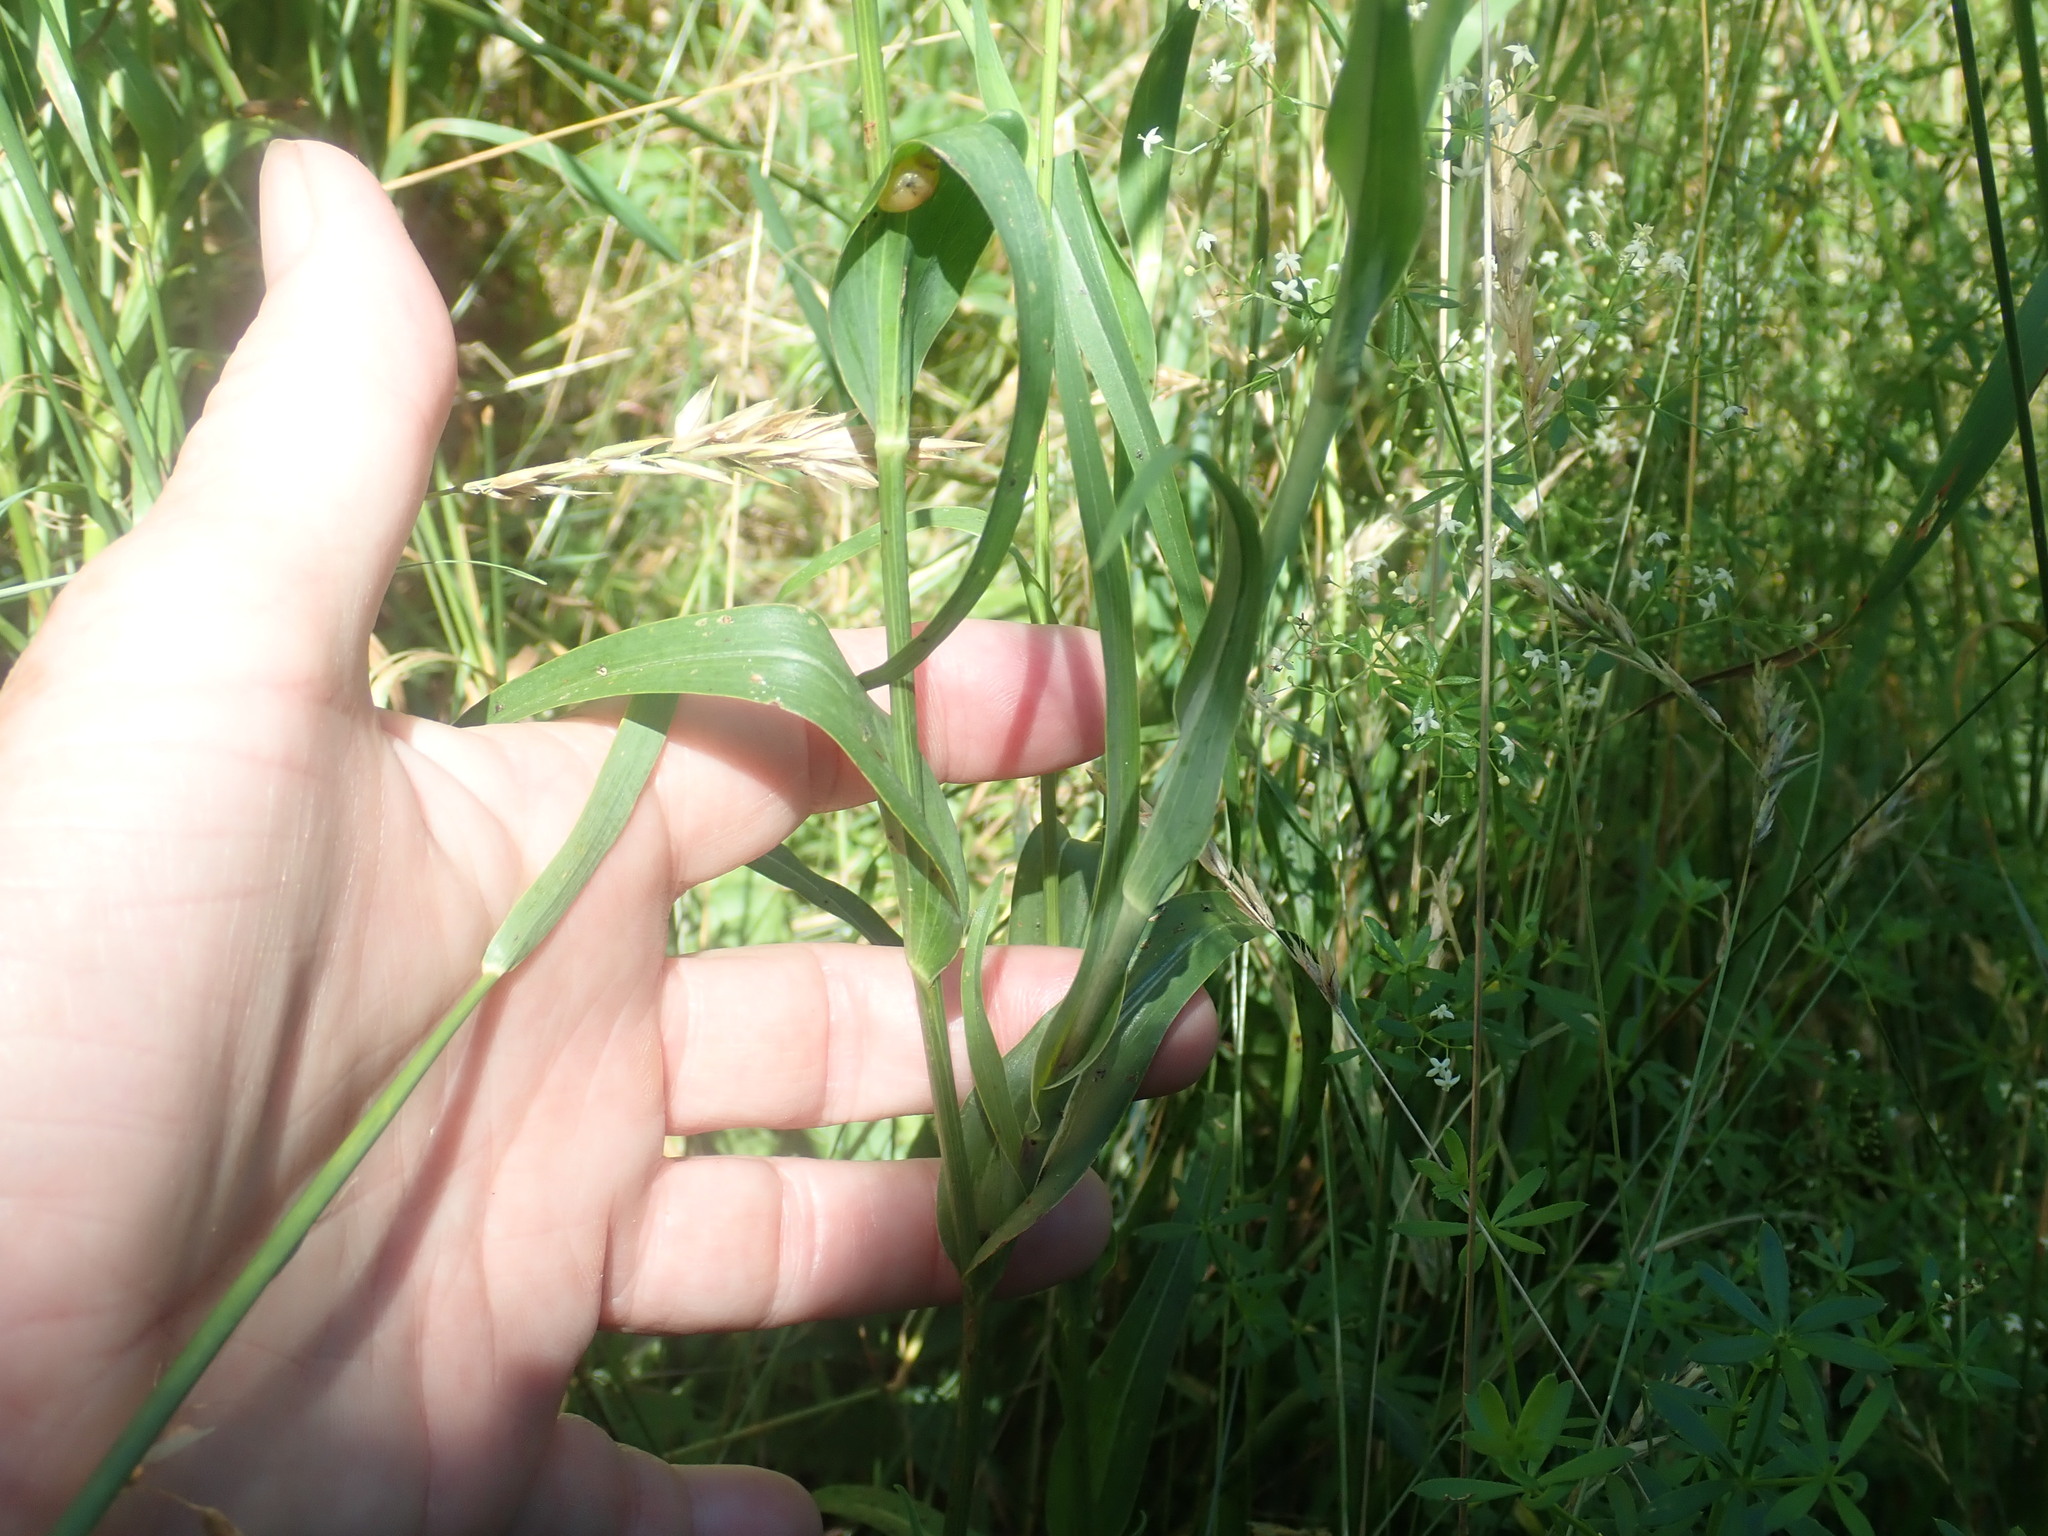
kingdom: Plantae
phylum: Tracheophyta
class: Magnoliopsida
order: Asterales
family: Asteraceae
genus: Tragopogon
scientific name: Tragopogon pratensis
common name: Goat's-beard
